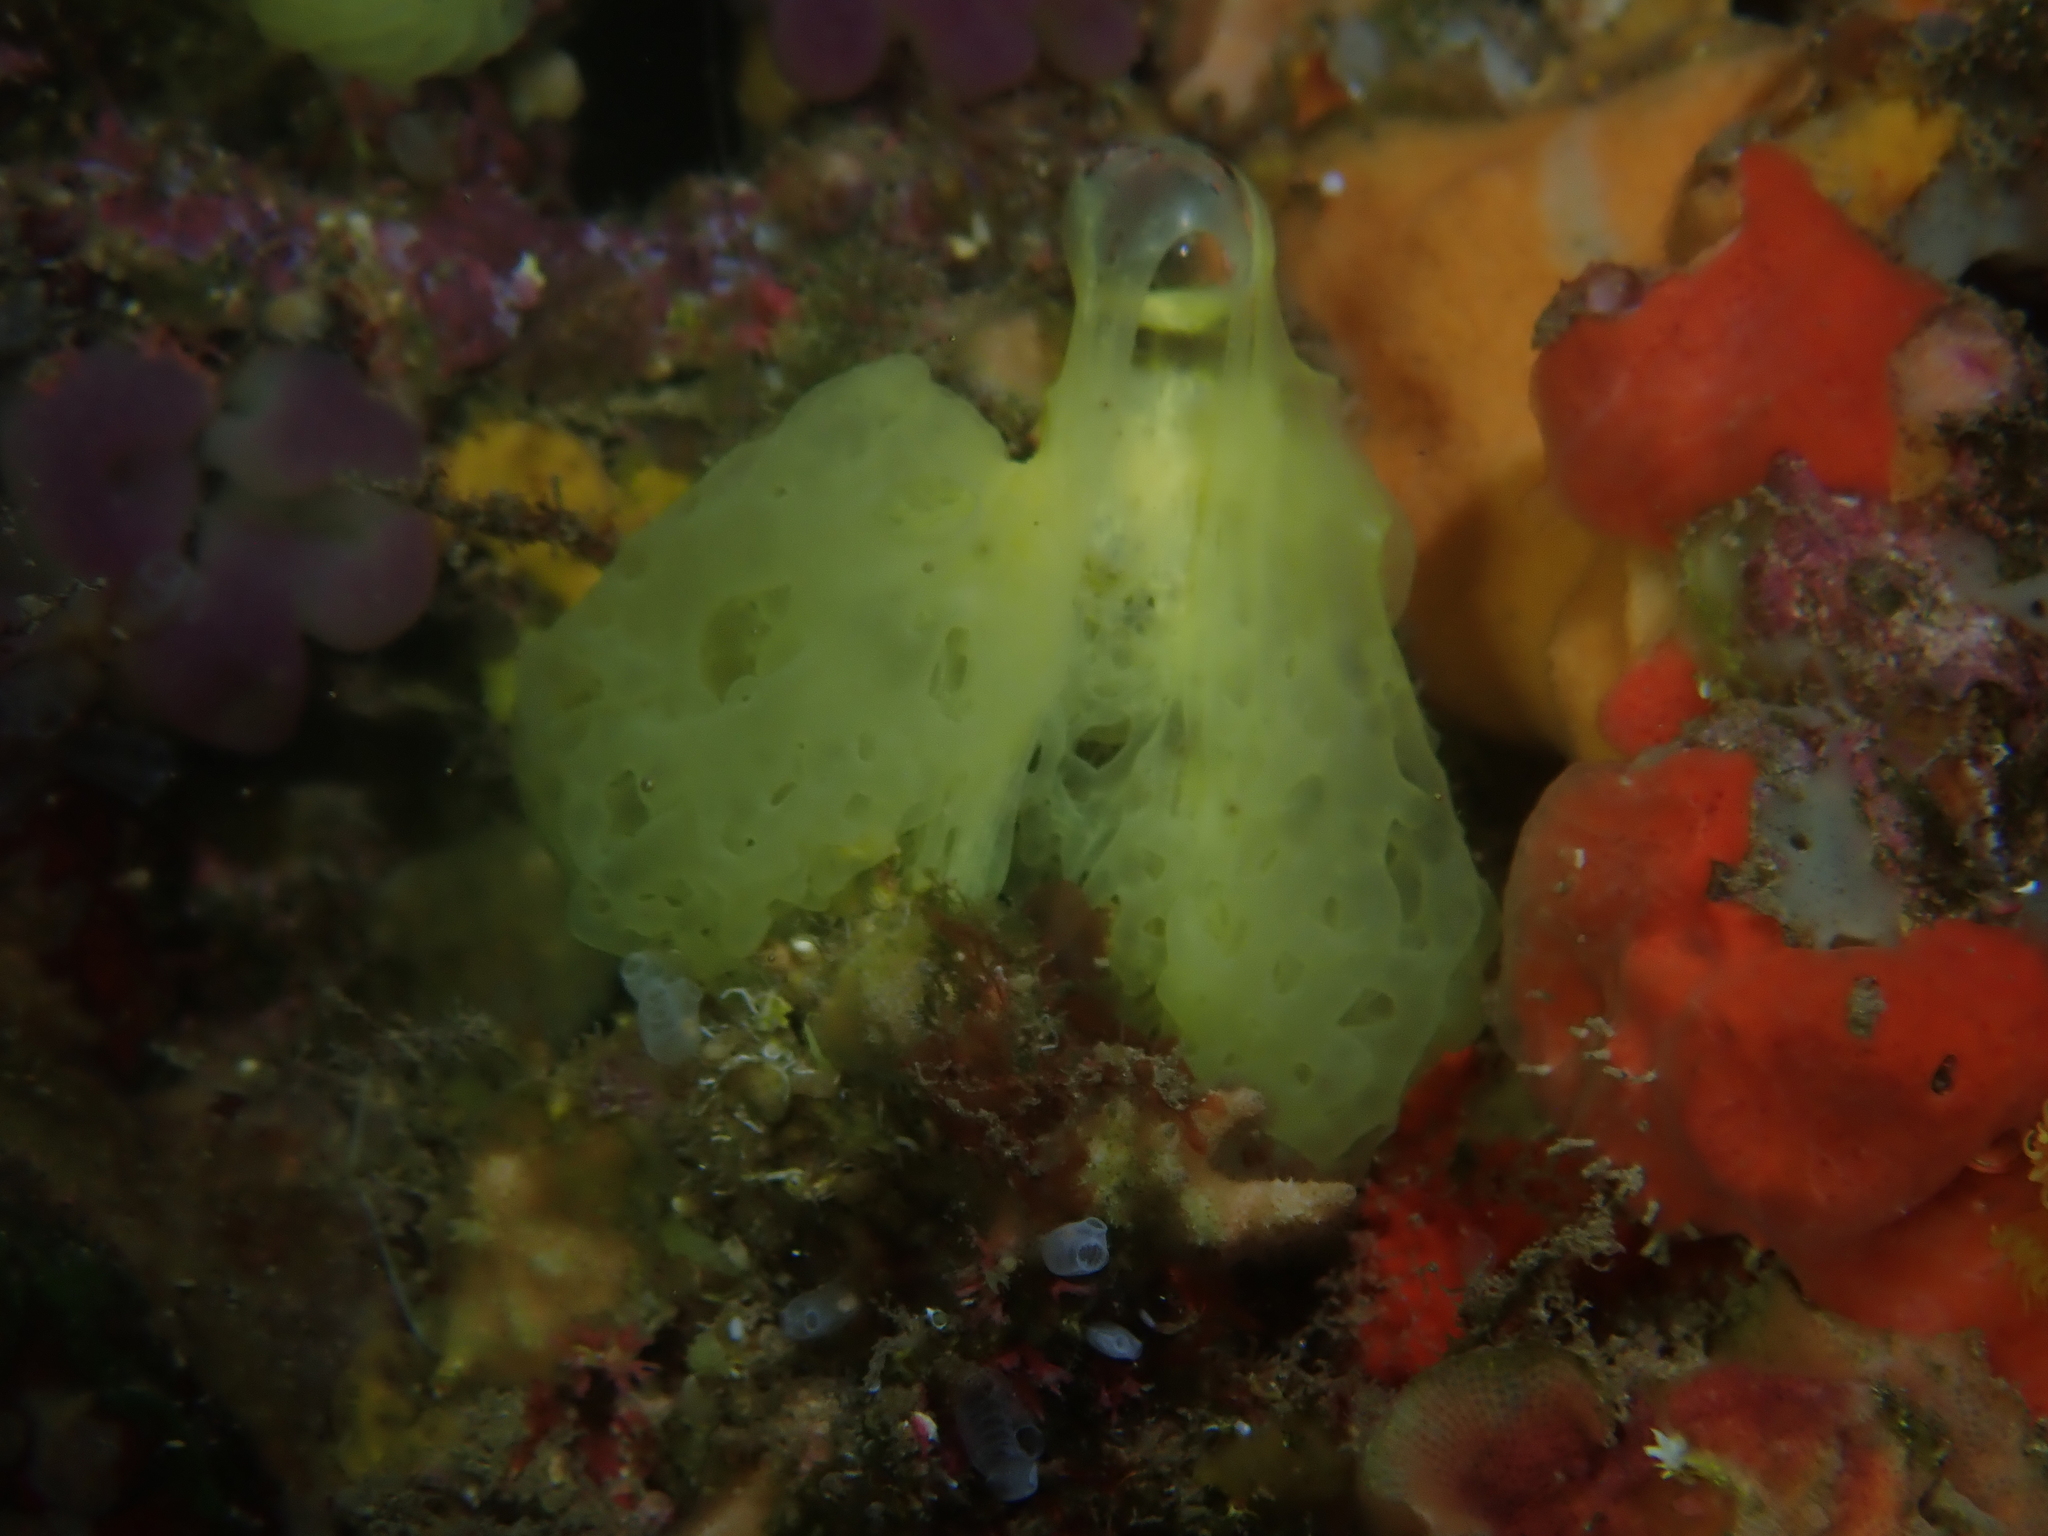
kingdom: Animalia
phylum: Porifera
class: Calcarea
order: Clathrinida
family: Clathrinidae
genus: Clathrina
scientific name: Clathrina clathrus
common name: Yellow clathrina
